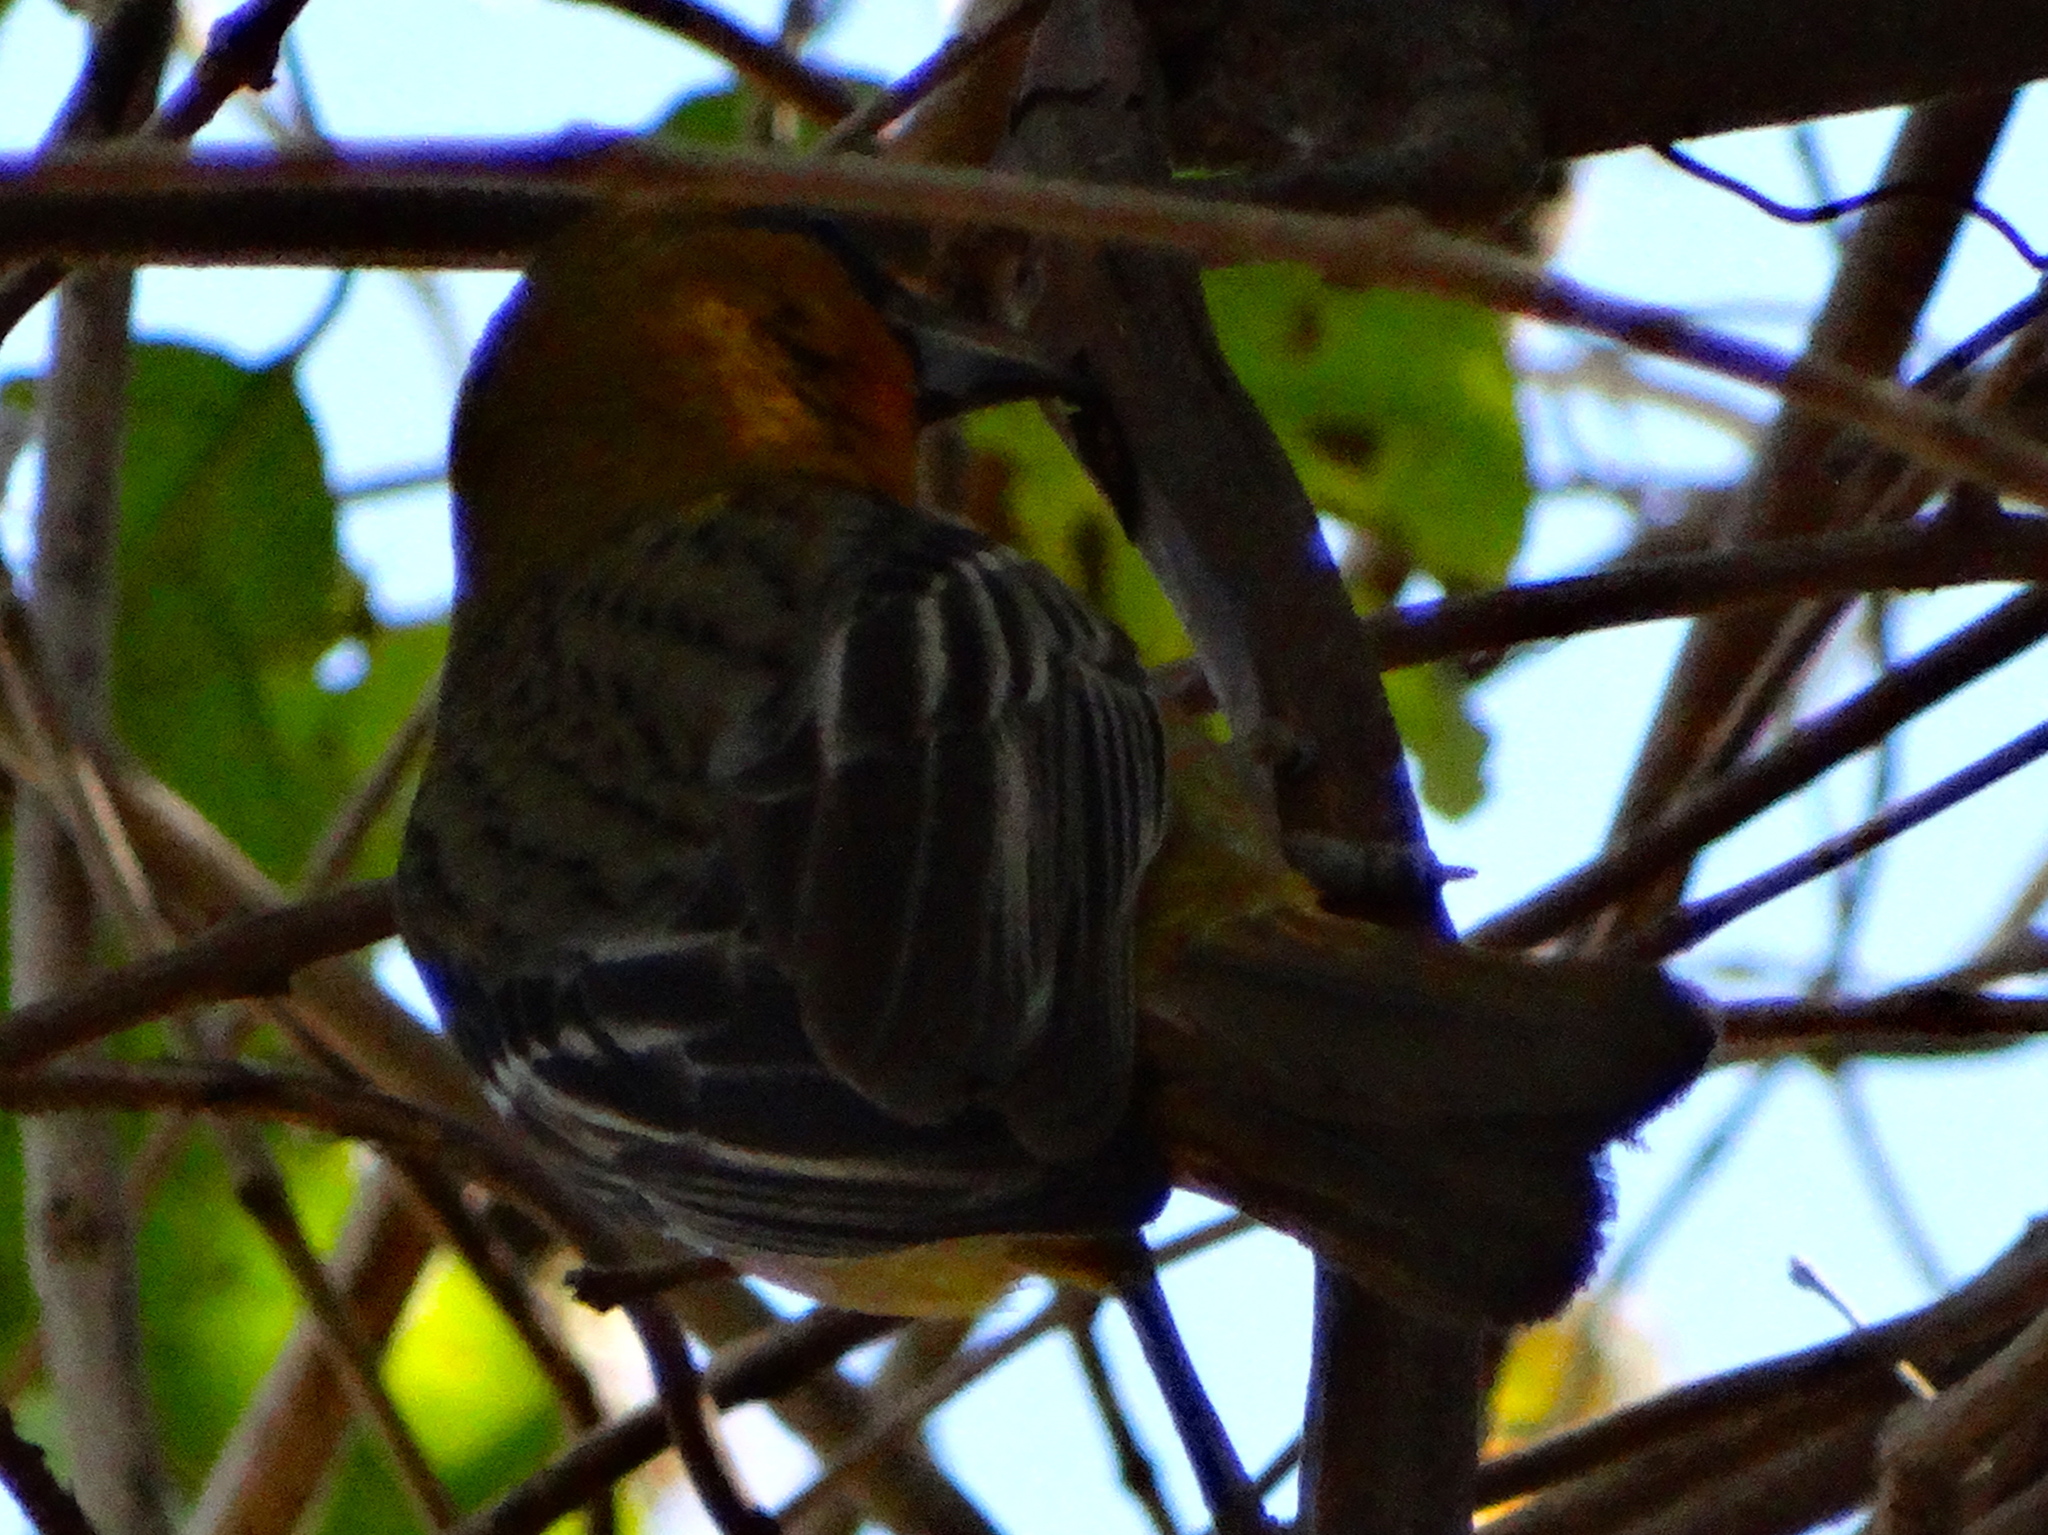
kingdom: Animalia
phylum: Chordata
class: Aves
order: Passeriformes
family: Icteridae
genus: Icterus
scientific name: Icterus pustulatus
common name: Streak-backed oriole
